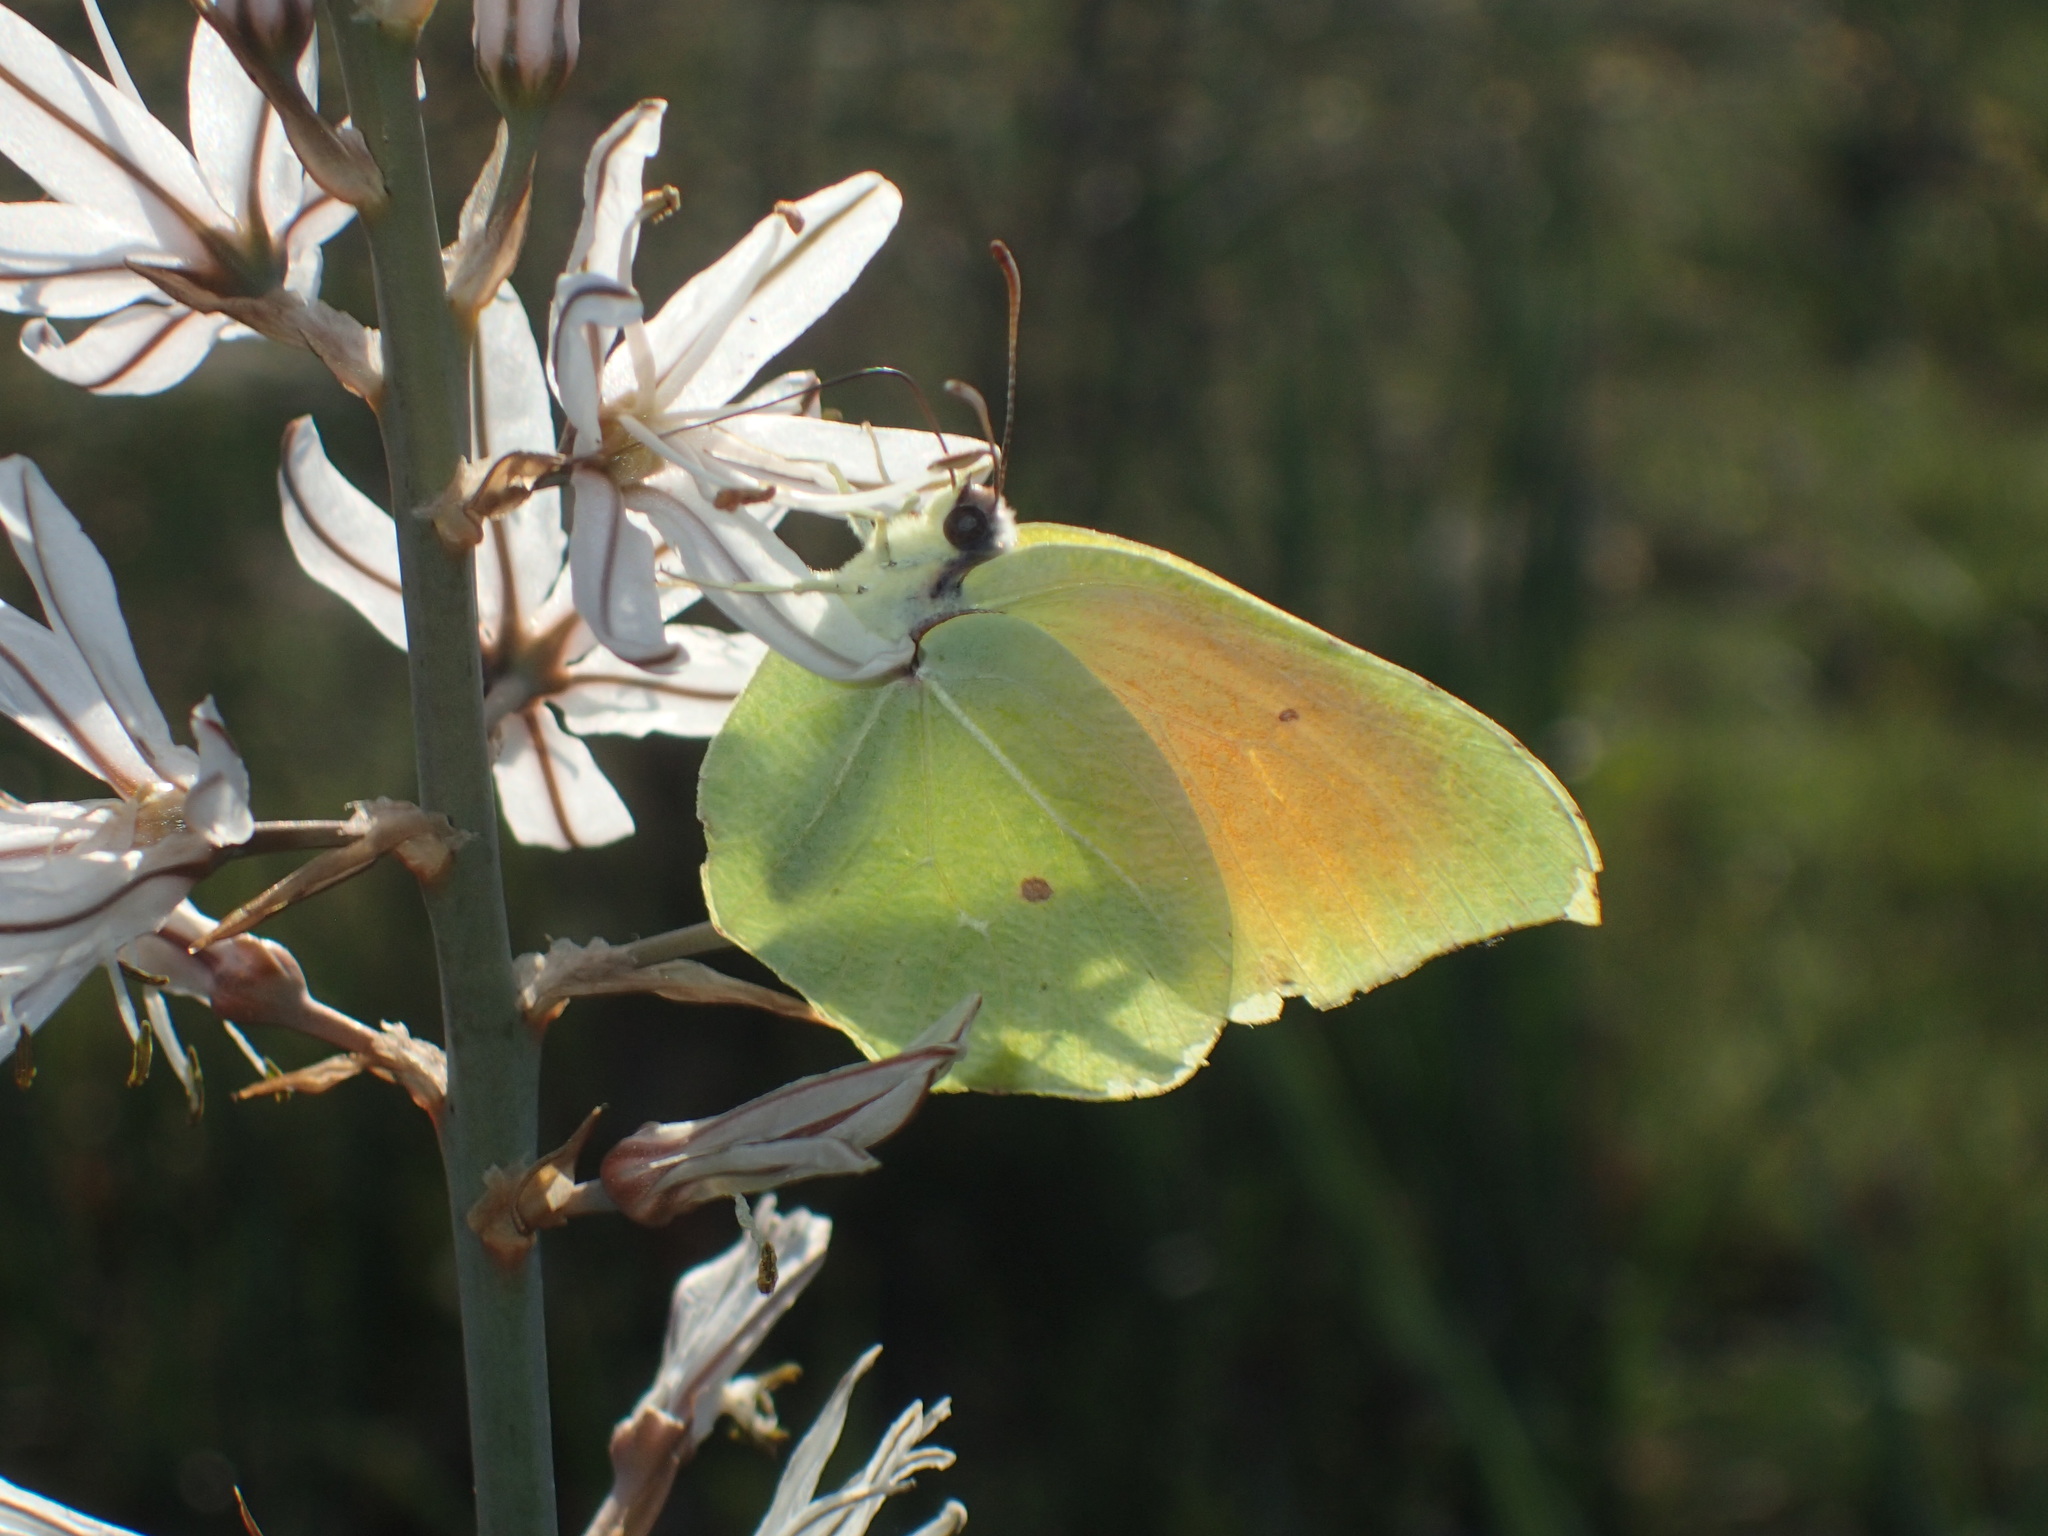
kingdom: Animalia
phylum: Arthropoda
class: Insecta
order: Lepidoptera
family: Pieridae
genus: Gonepteryx
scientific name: Gonepteryx cleopatra
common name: Cleopatra
